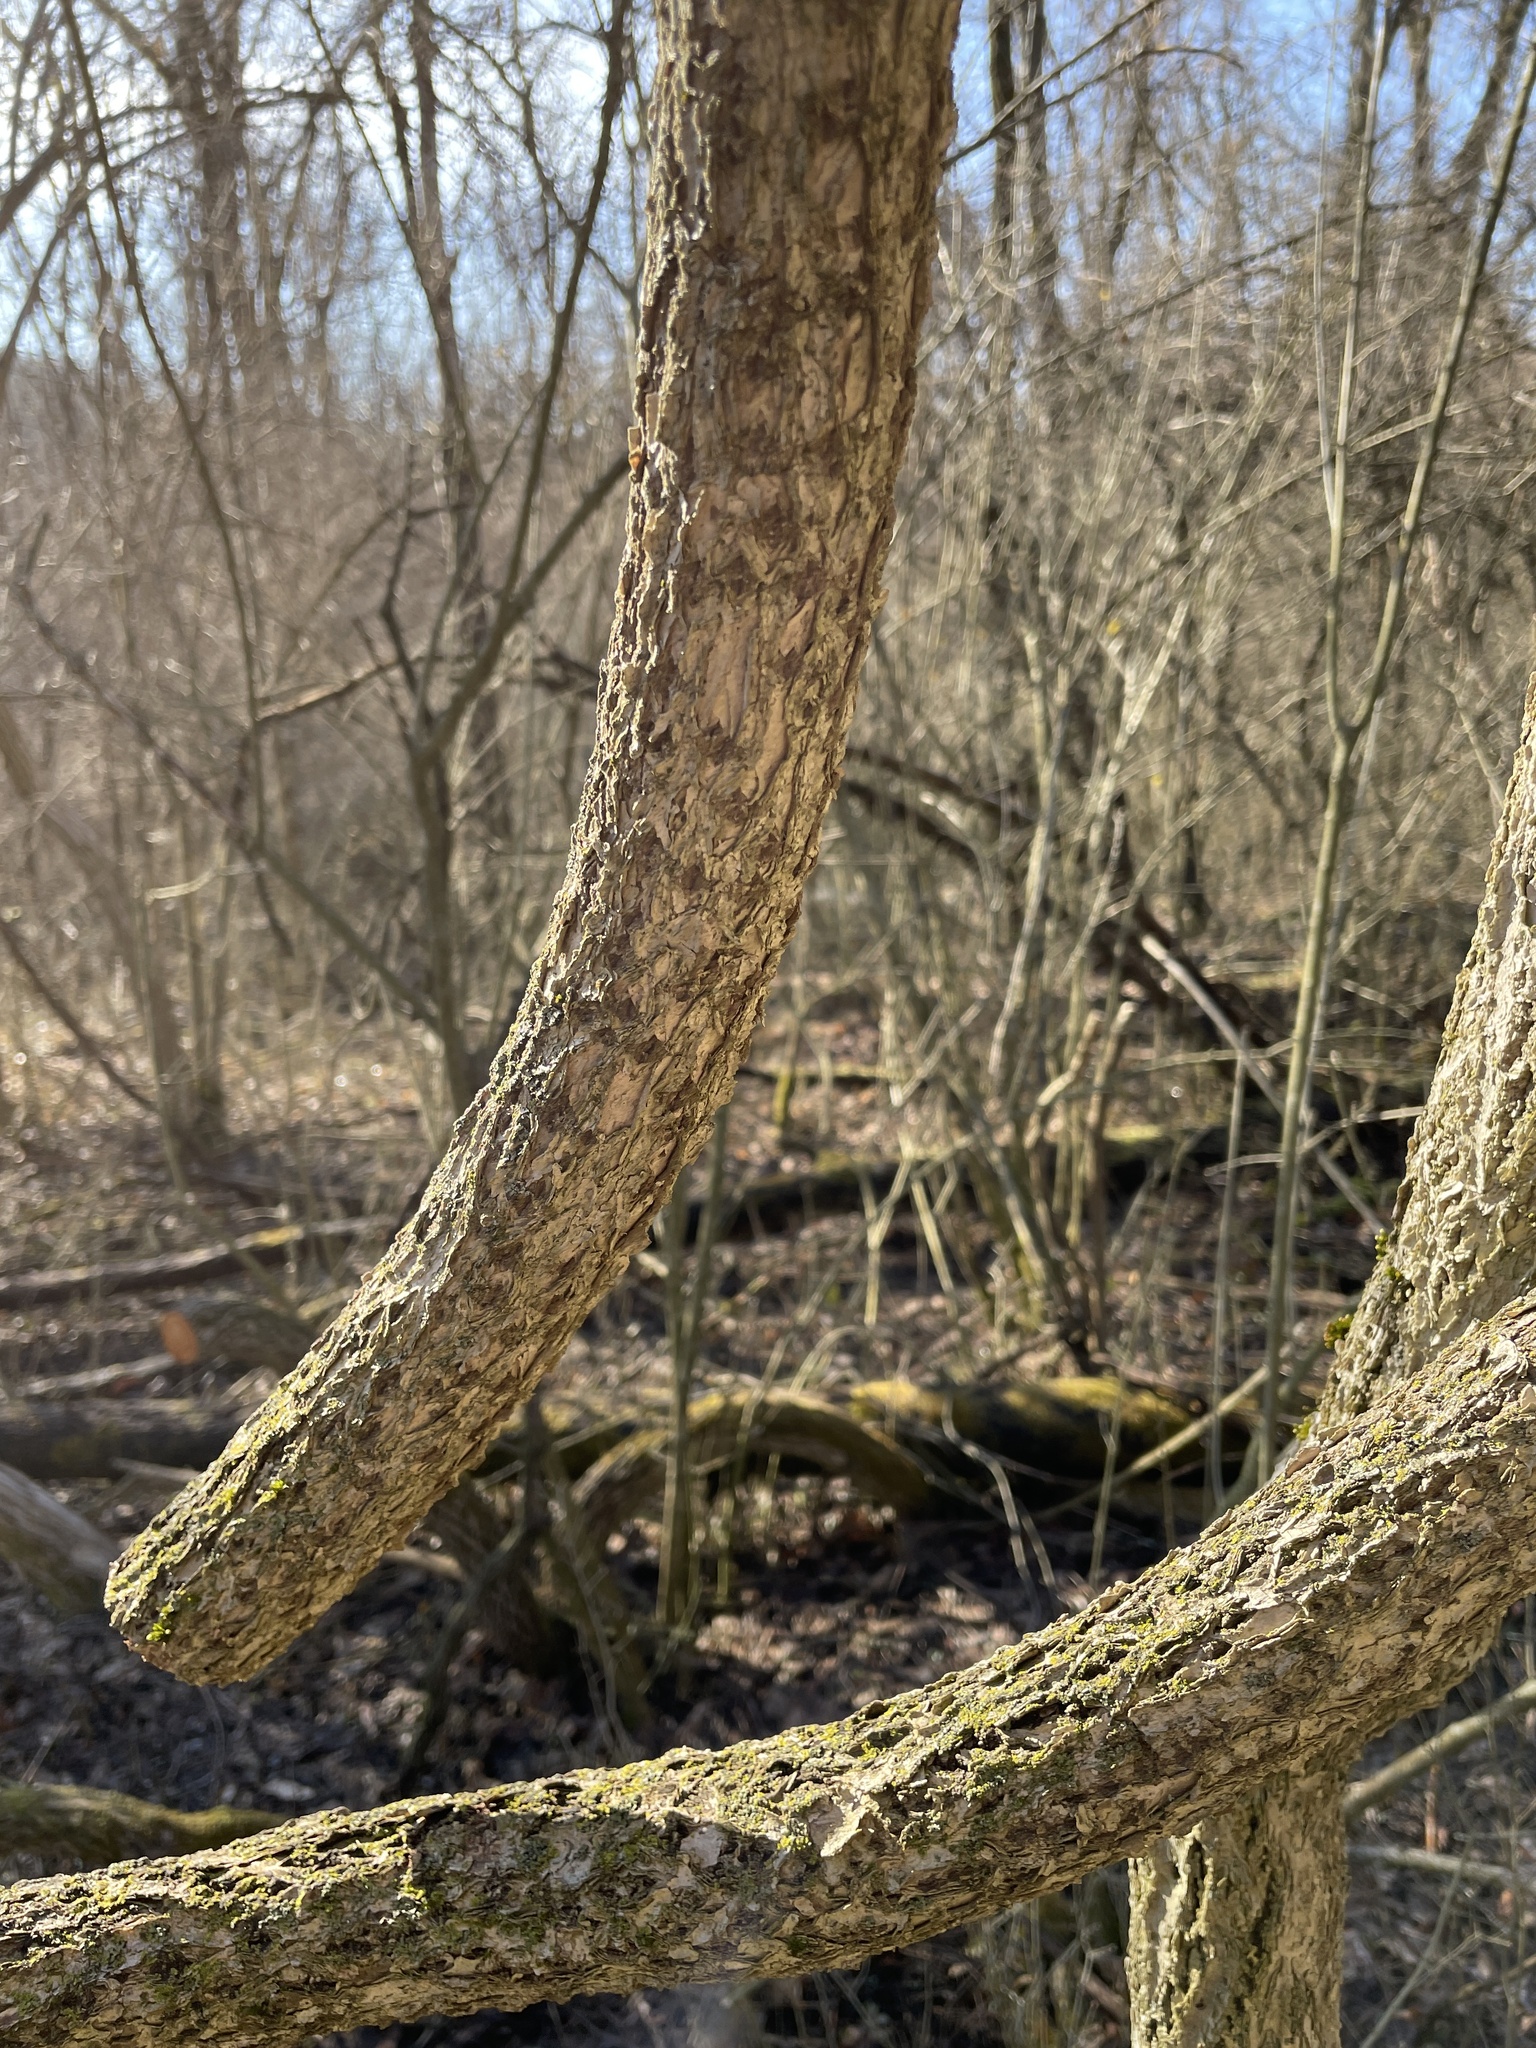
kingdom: Plantae
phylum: Tracheophyta
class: Magnoliopsida
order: Celastrales
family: Celastraceae
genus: Celastrus
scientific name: Celastrus orbiculatus
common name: Oriental bittersweet
